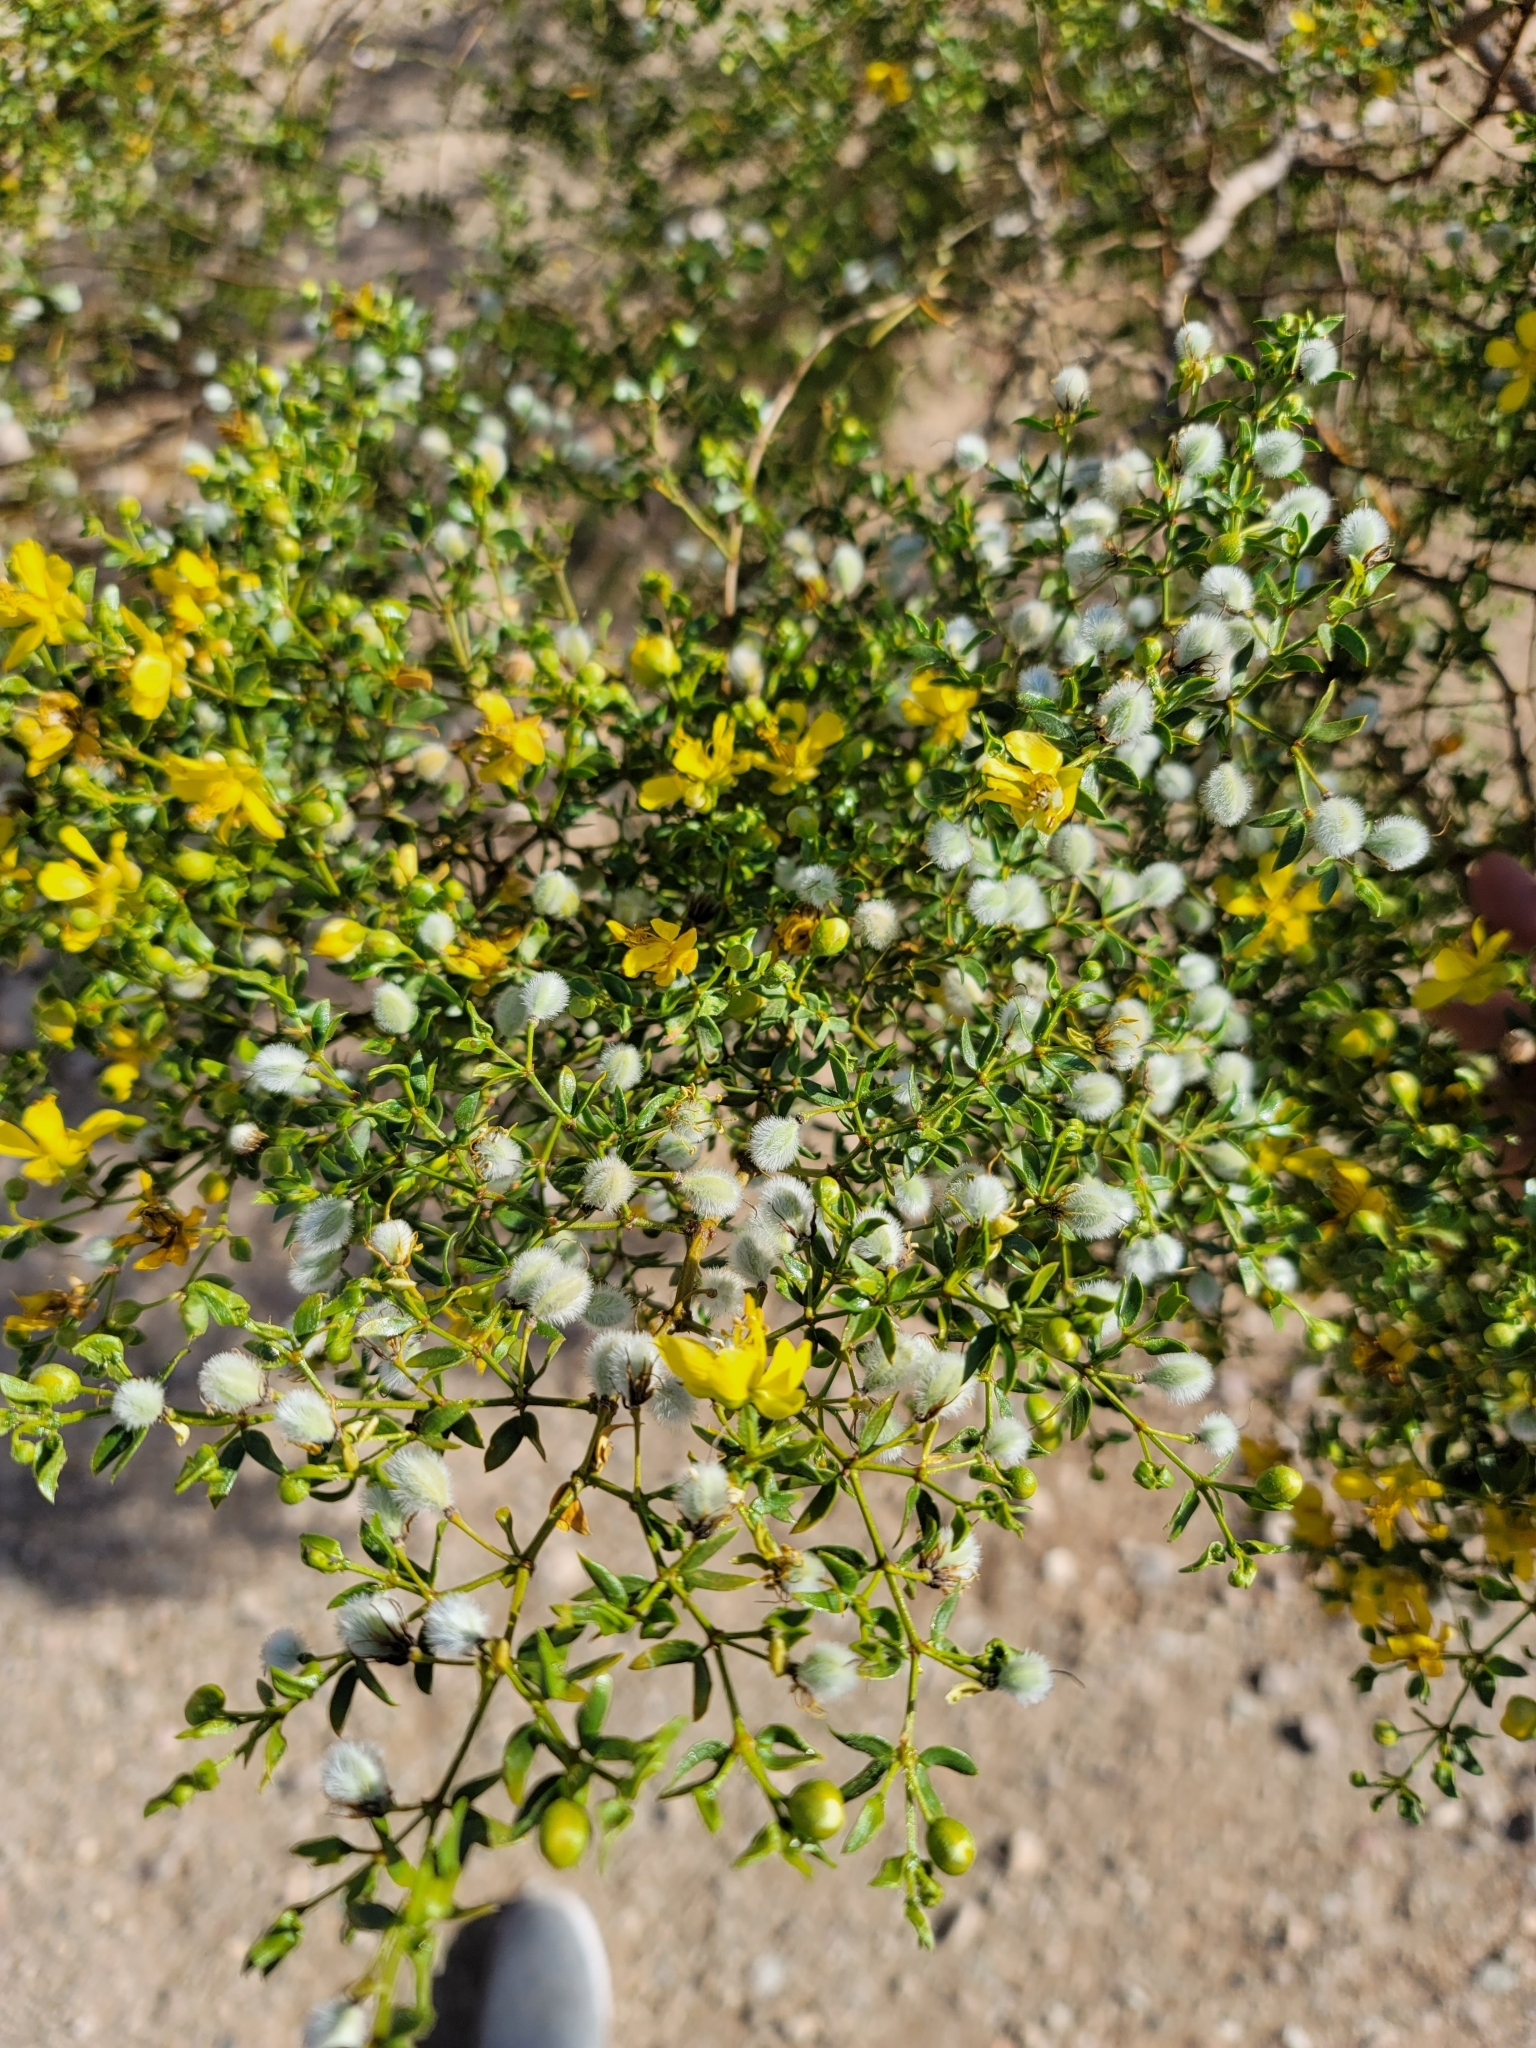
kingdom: Plantae
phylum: Tracheophyta
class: Magnoliopsida
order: Zygophyllales
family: Zygophyllaceae
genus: Larrea
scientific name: Larrea tridentata
